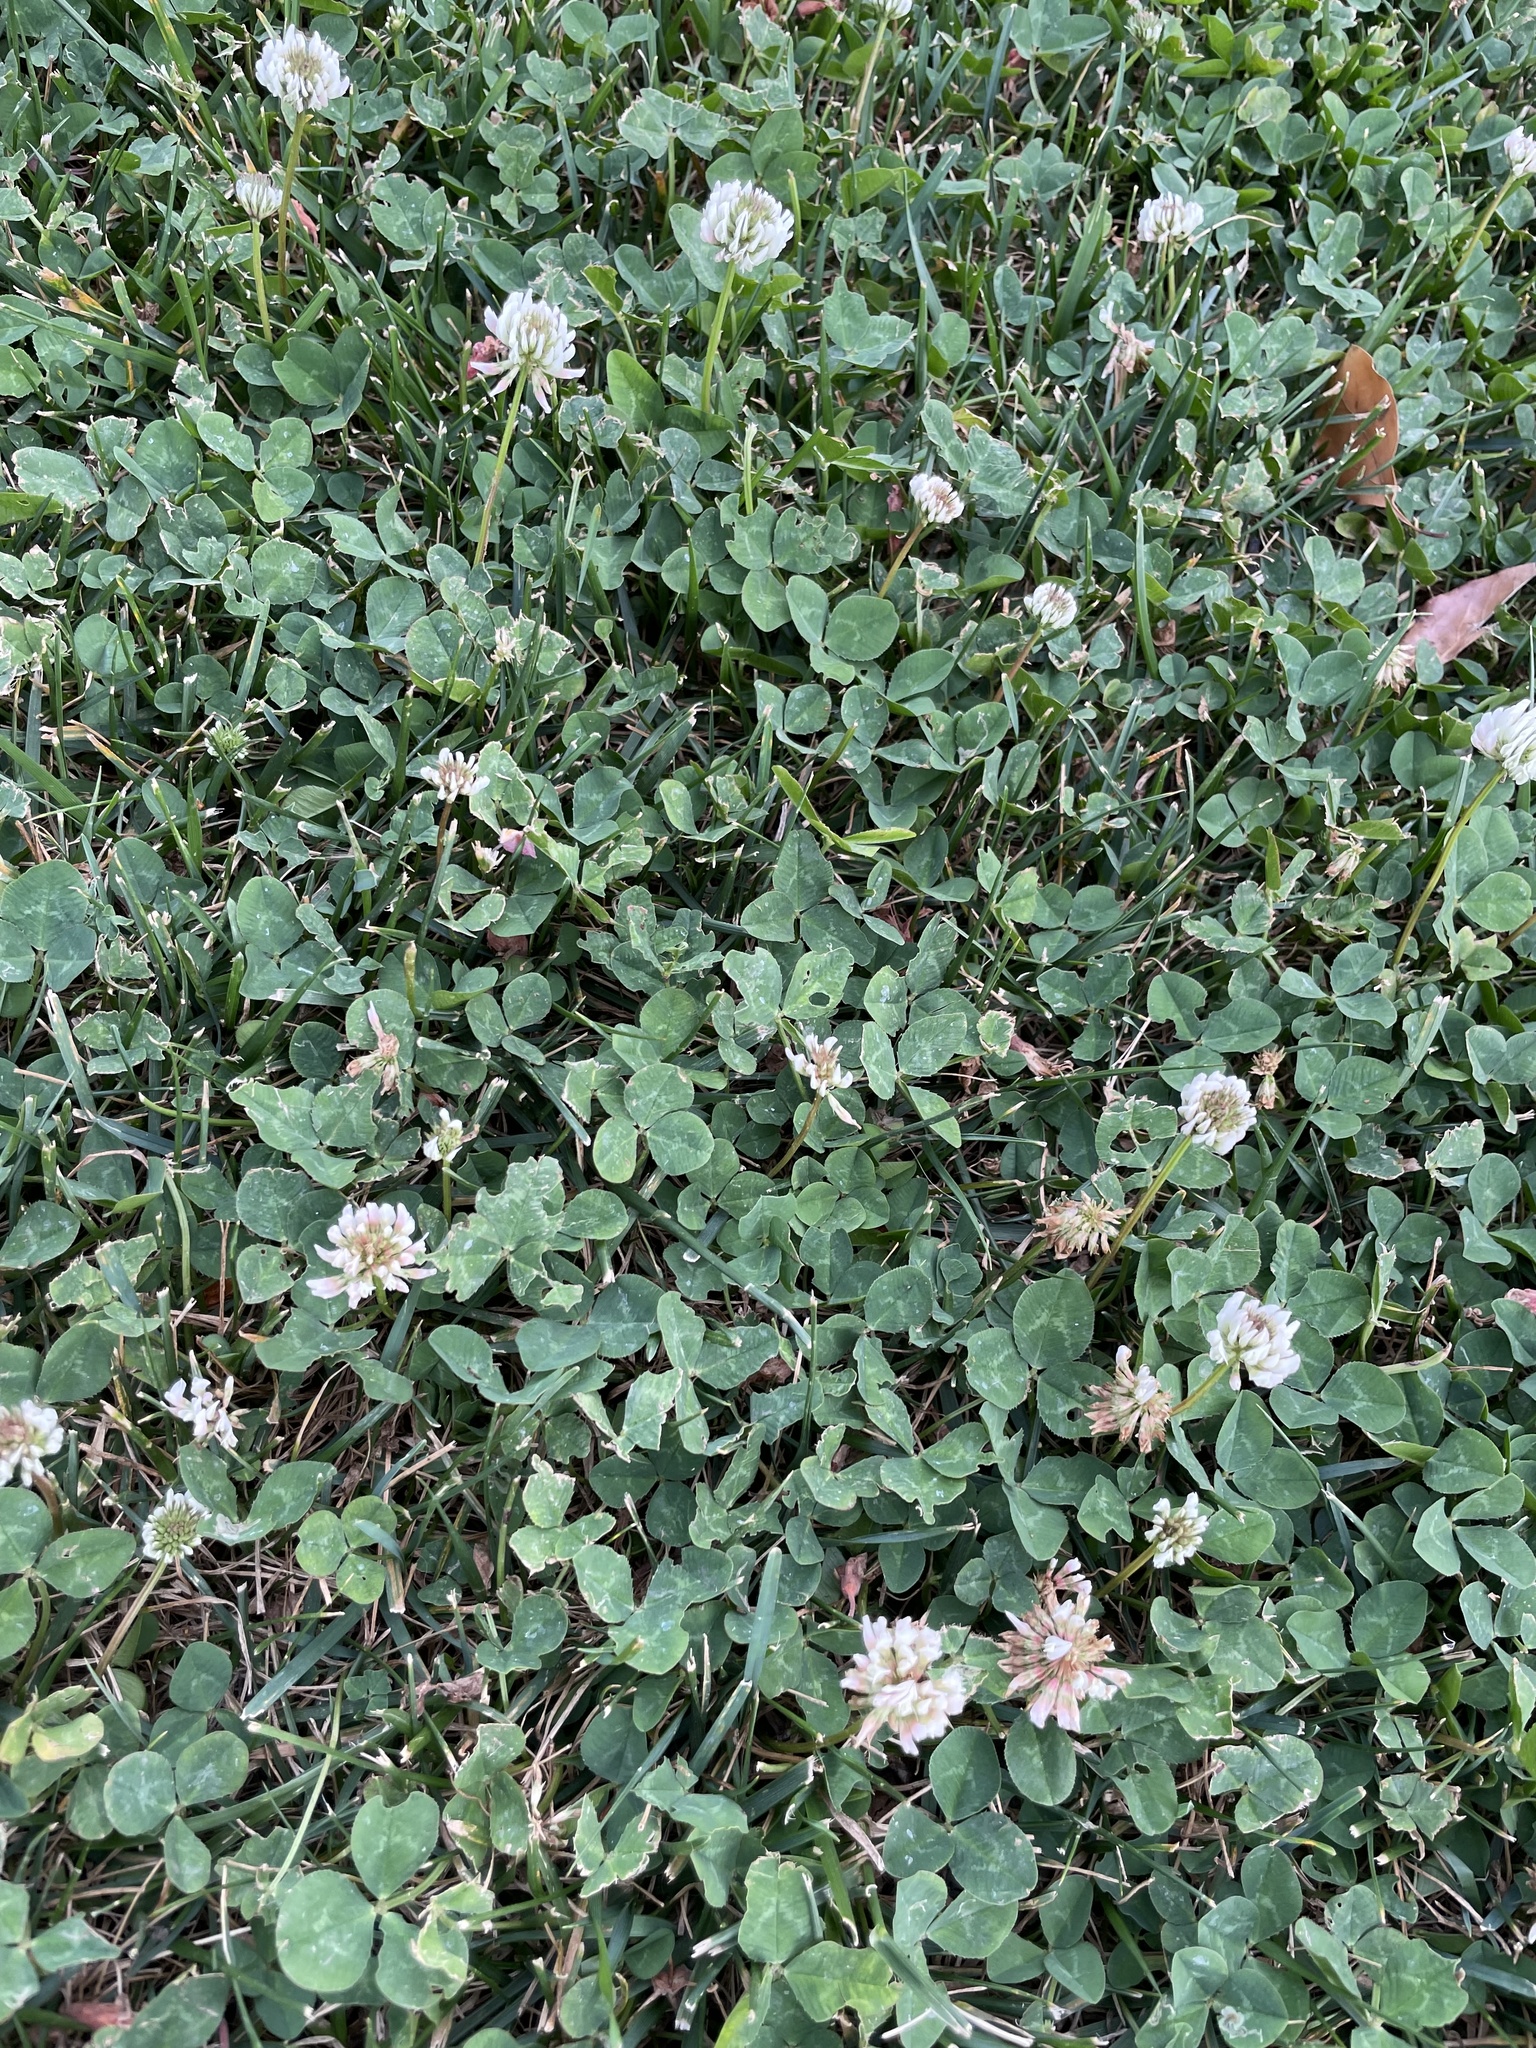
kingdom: Plantae
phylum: Tracheophyta
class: Magnoliopsida
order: Fabales
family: Fabaceae
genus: Trifolium
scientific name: Trifolium repens
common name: White clover
